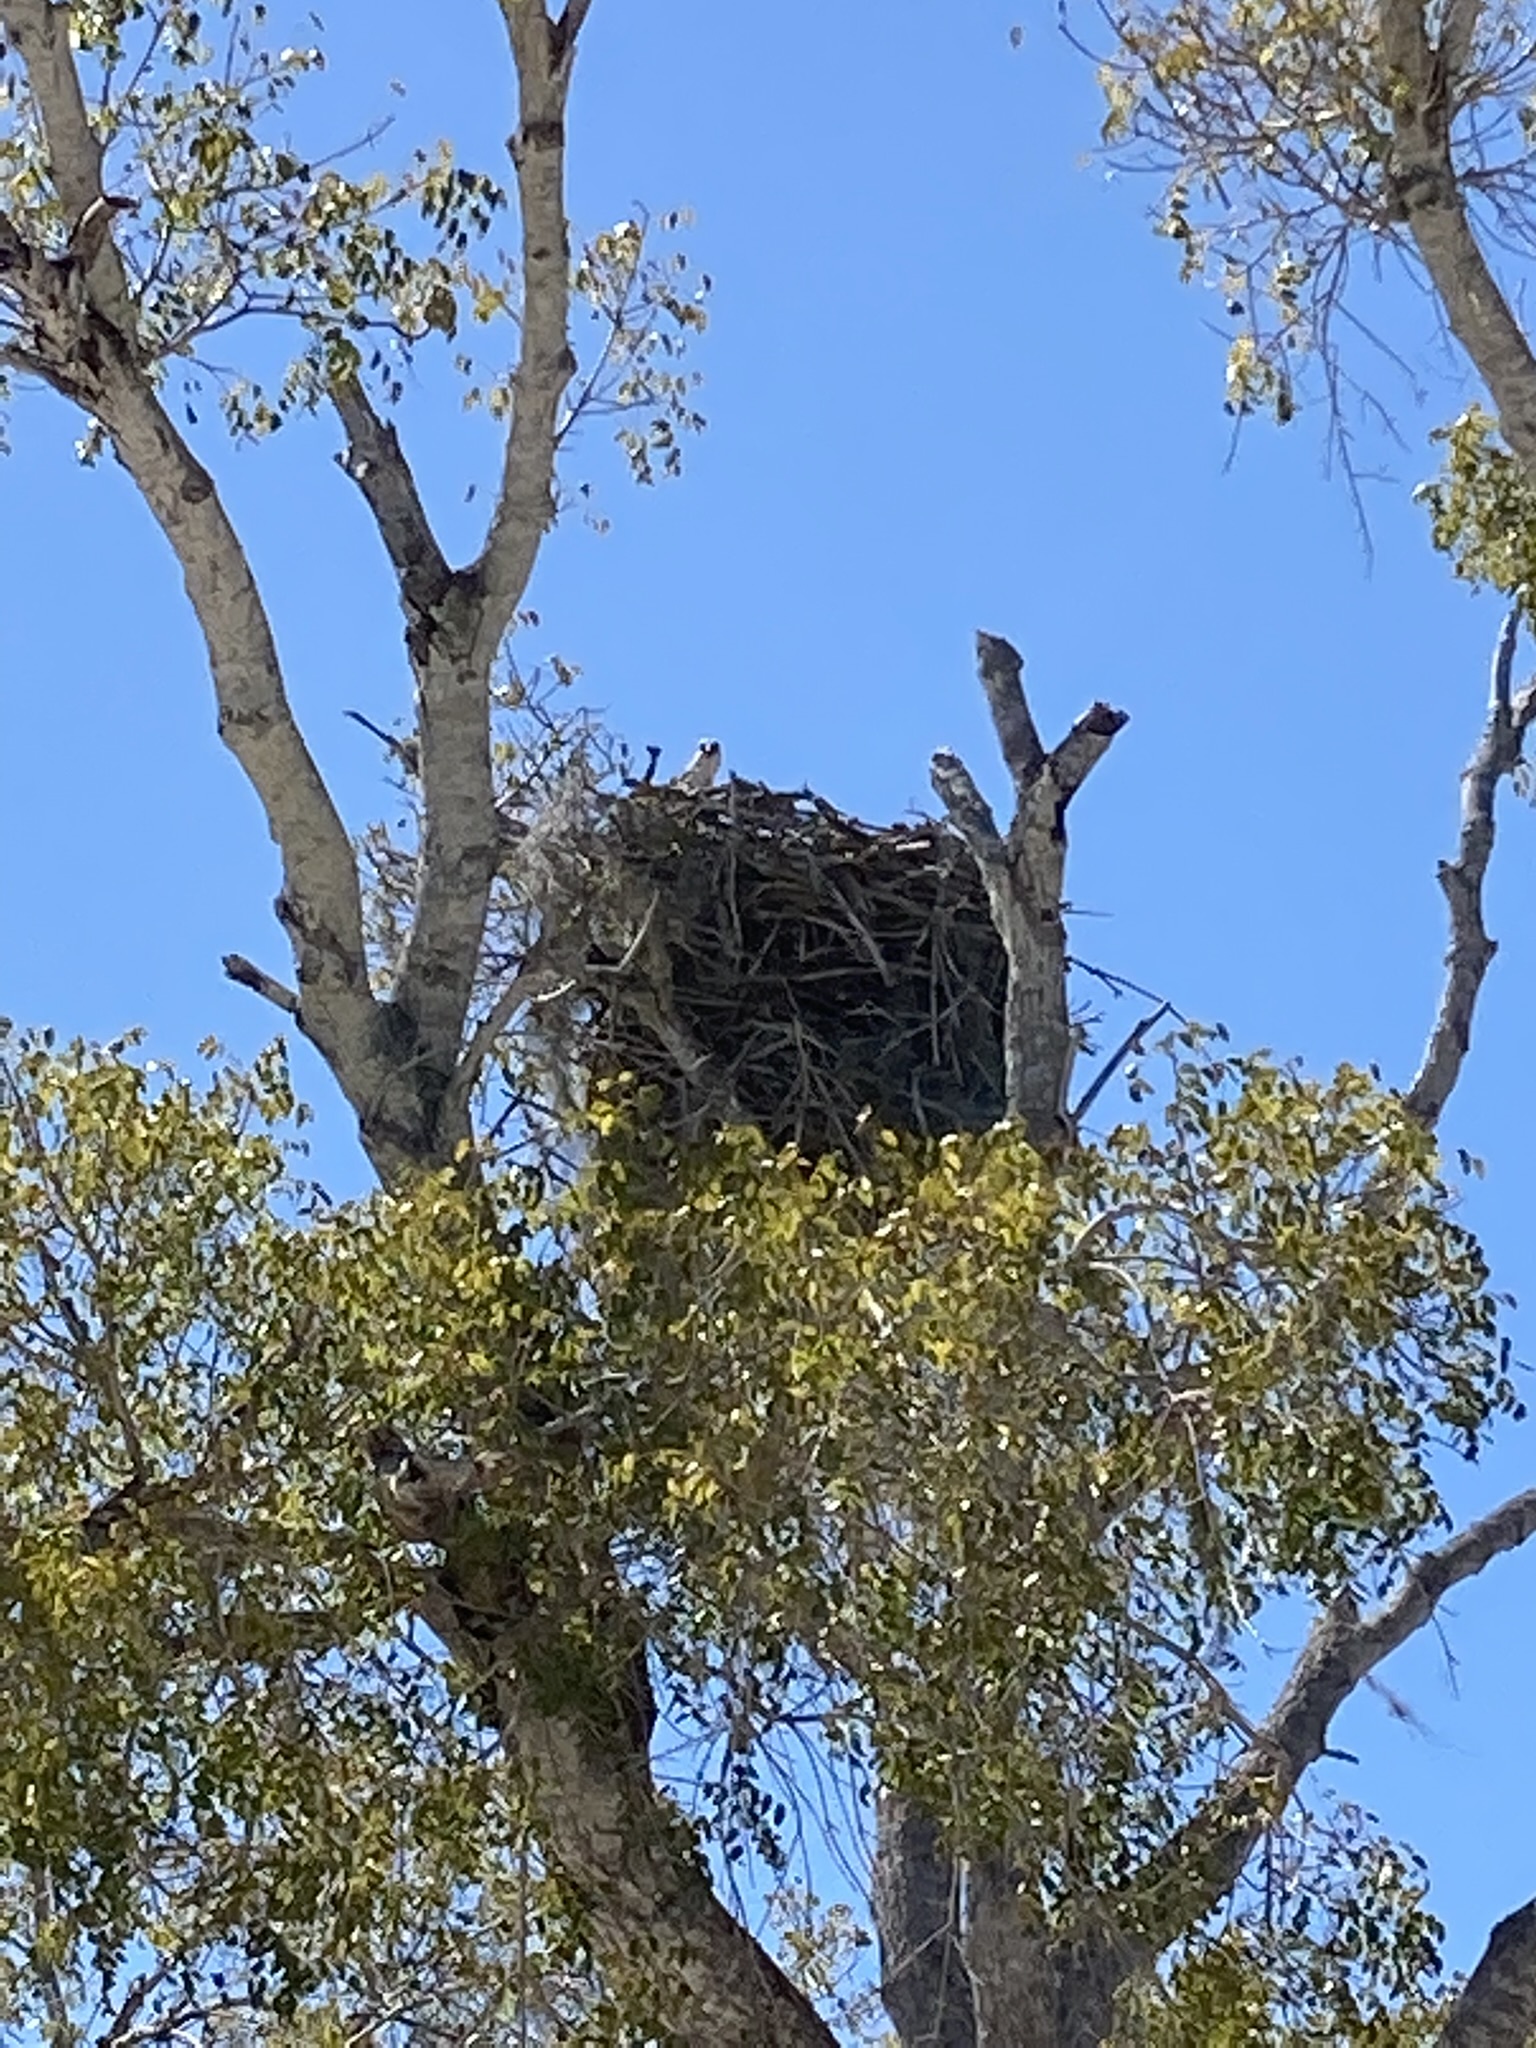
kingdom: Animalia
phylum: Chordata
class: Aves
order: Accipitriformes
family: Pandionidae
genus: Pandion
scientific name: Pandion haliaetus
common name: Osprey
